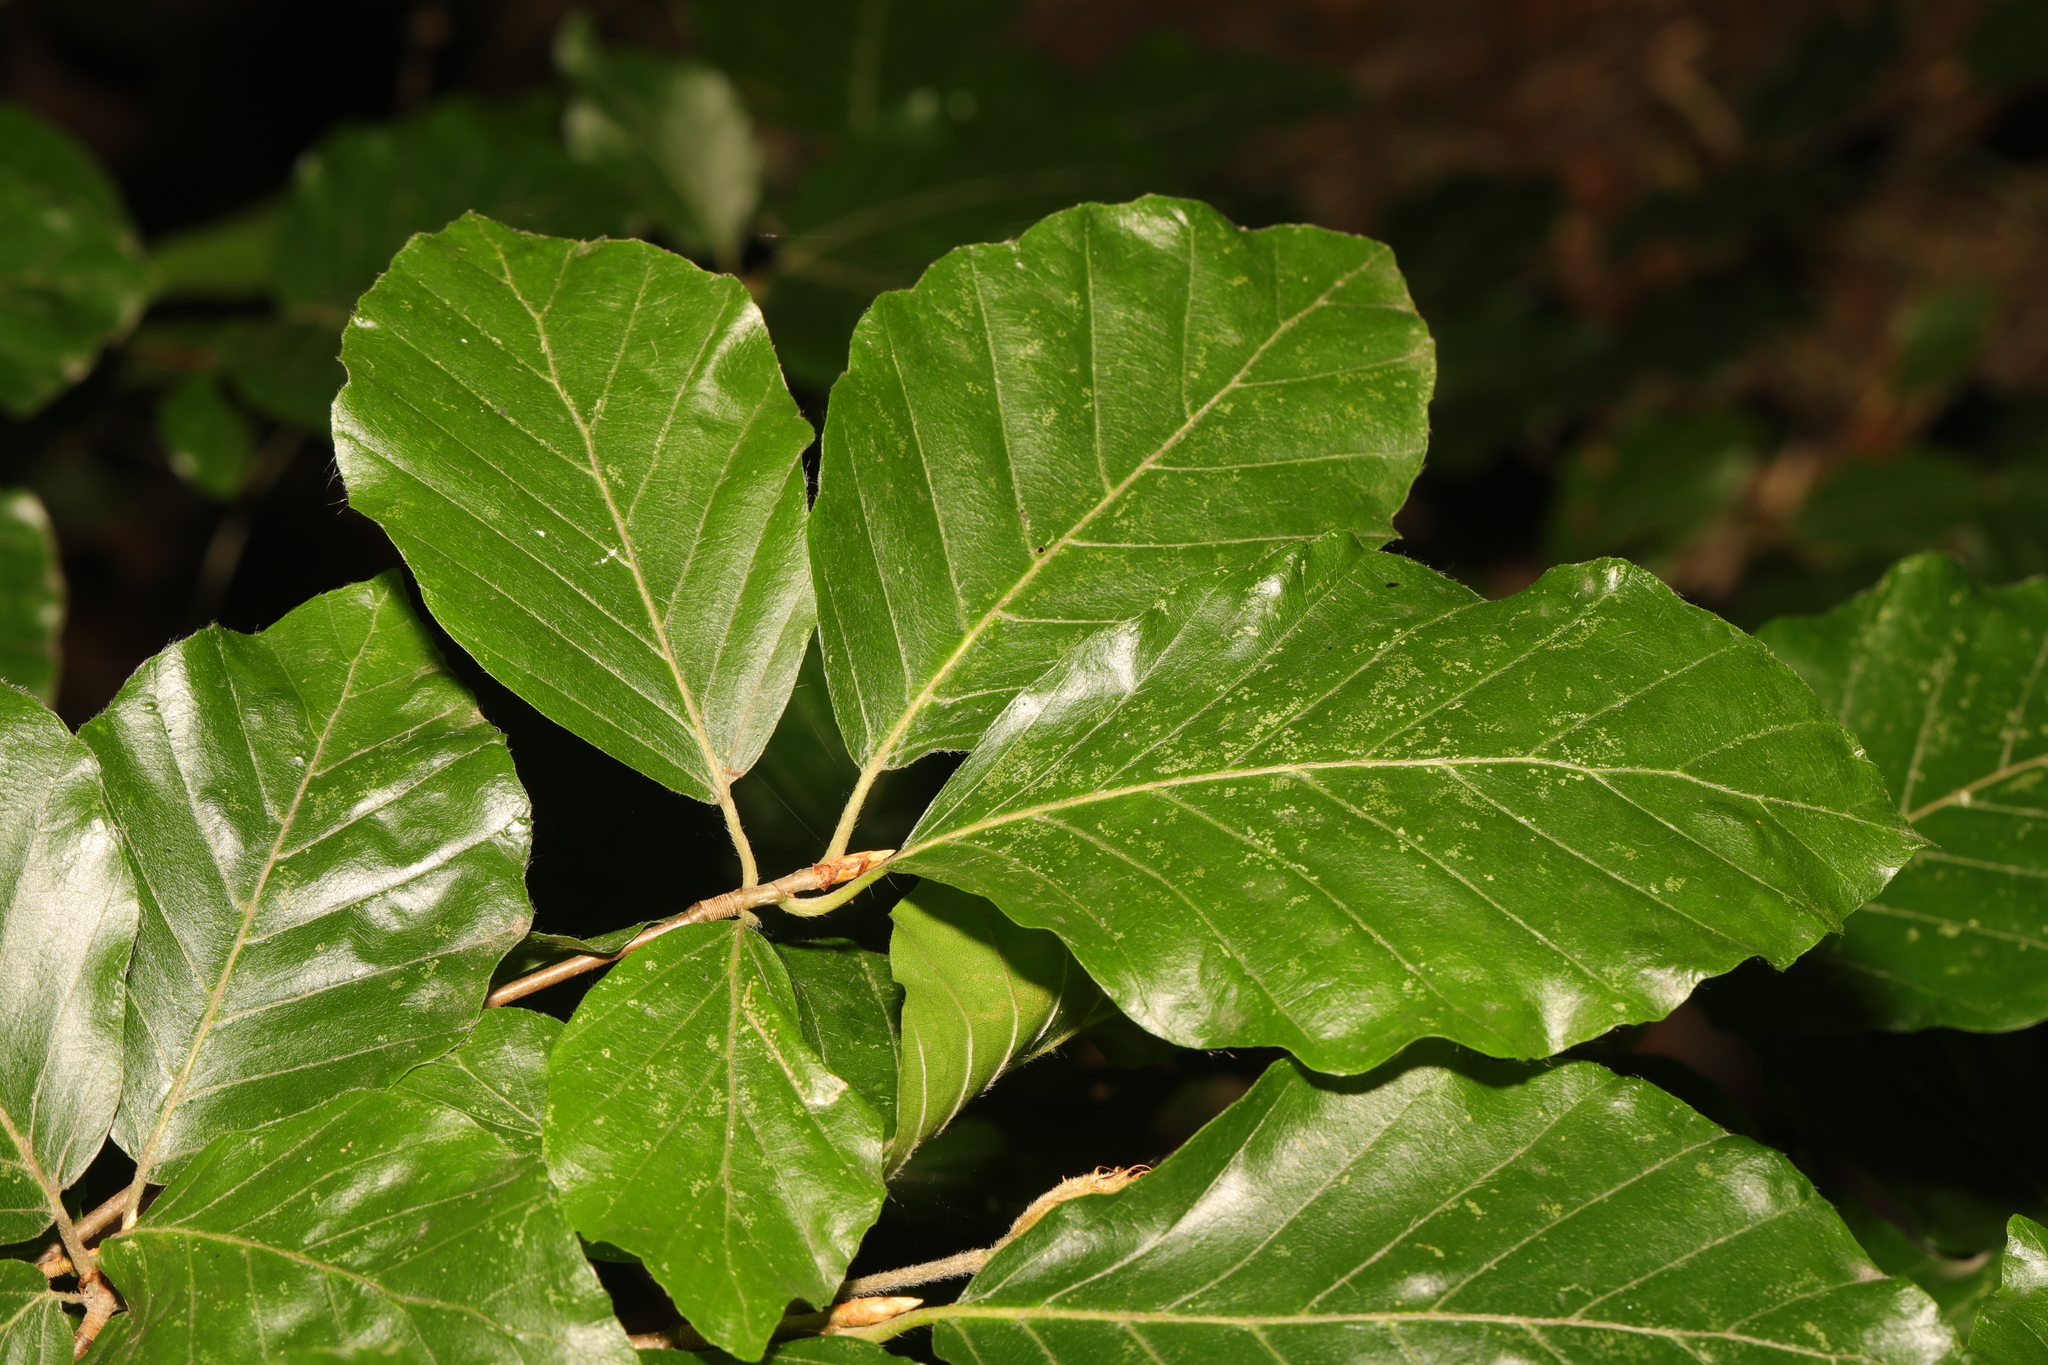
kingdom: Plantae
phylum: Tracheophyta
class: Magnoliopsida
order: Fagales
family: Fagaceae
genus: Fagus
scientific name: Fagus sylvatica
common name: Beech
